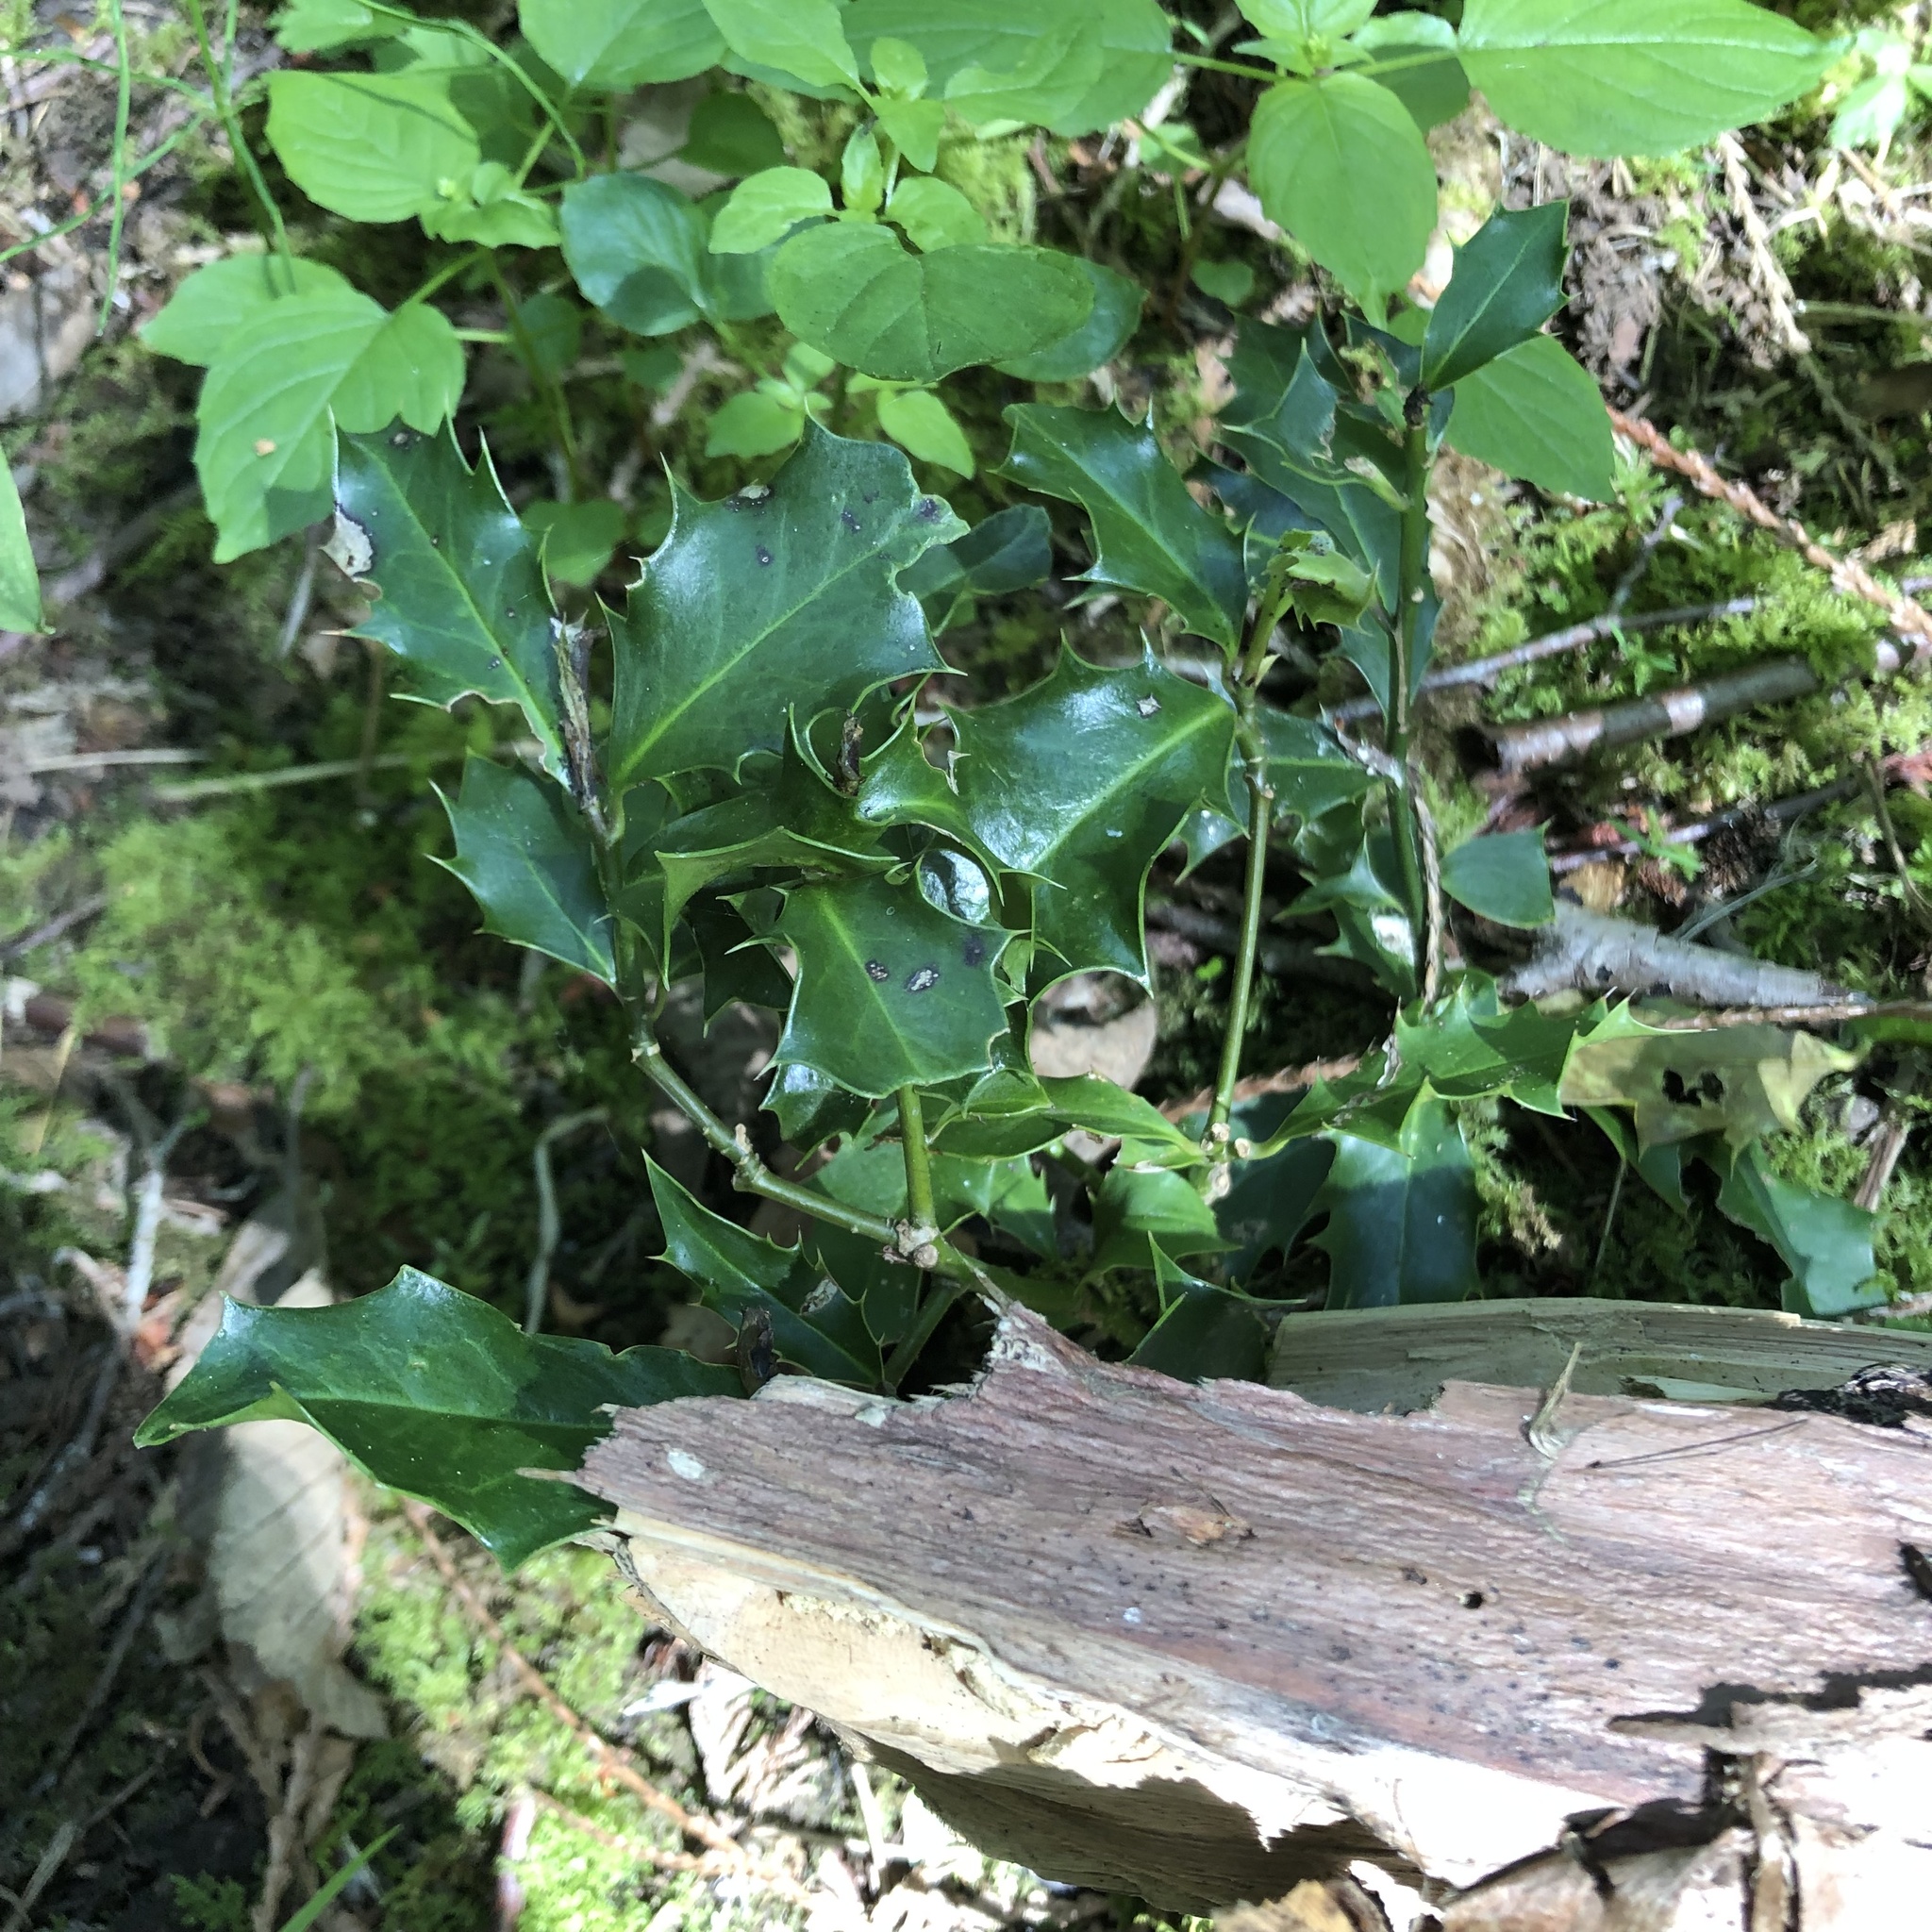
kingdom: Plantae
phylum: Tracheophyta
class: Magnoliopsida
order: Aquifoliales
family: Aquifoliaceae
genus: Ilex
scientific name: Ilex aquifolium
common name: English holly
